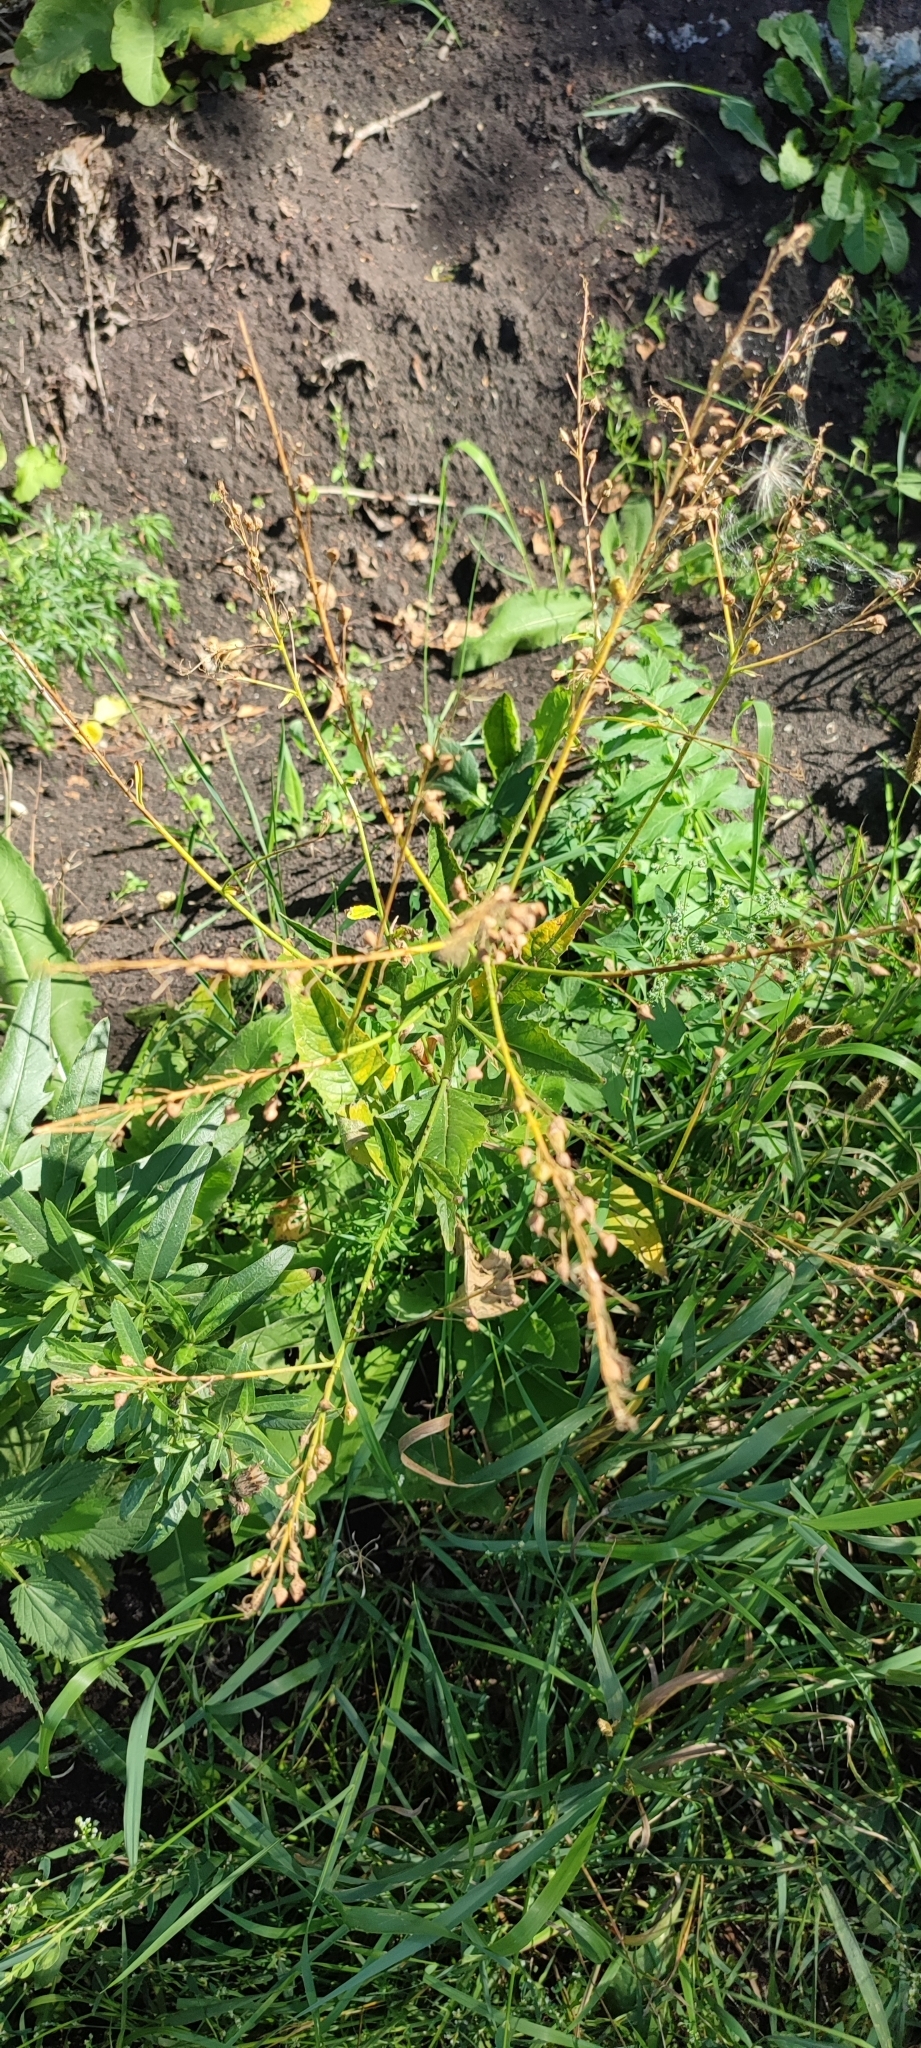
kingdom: Plantae
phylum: Tracheophyta
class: Magnoliopsida
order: Brassicales
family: Brassicaceae
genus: Bunias
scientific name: Bunias orientalis
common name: Warty-cabbage
